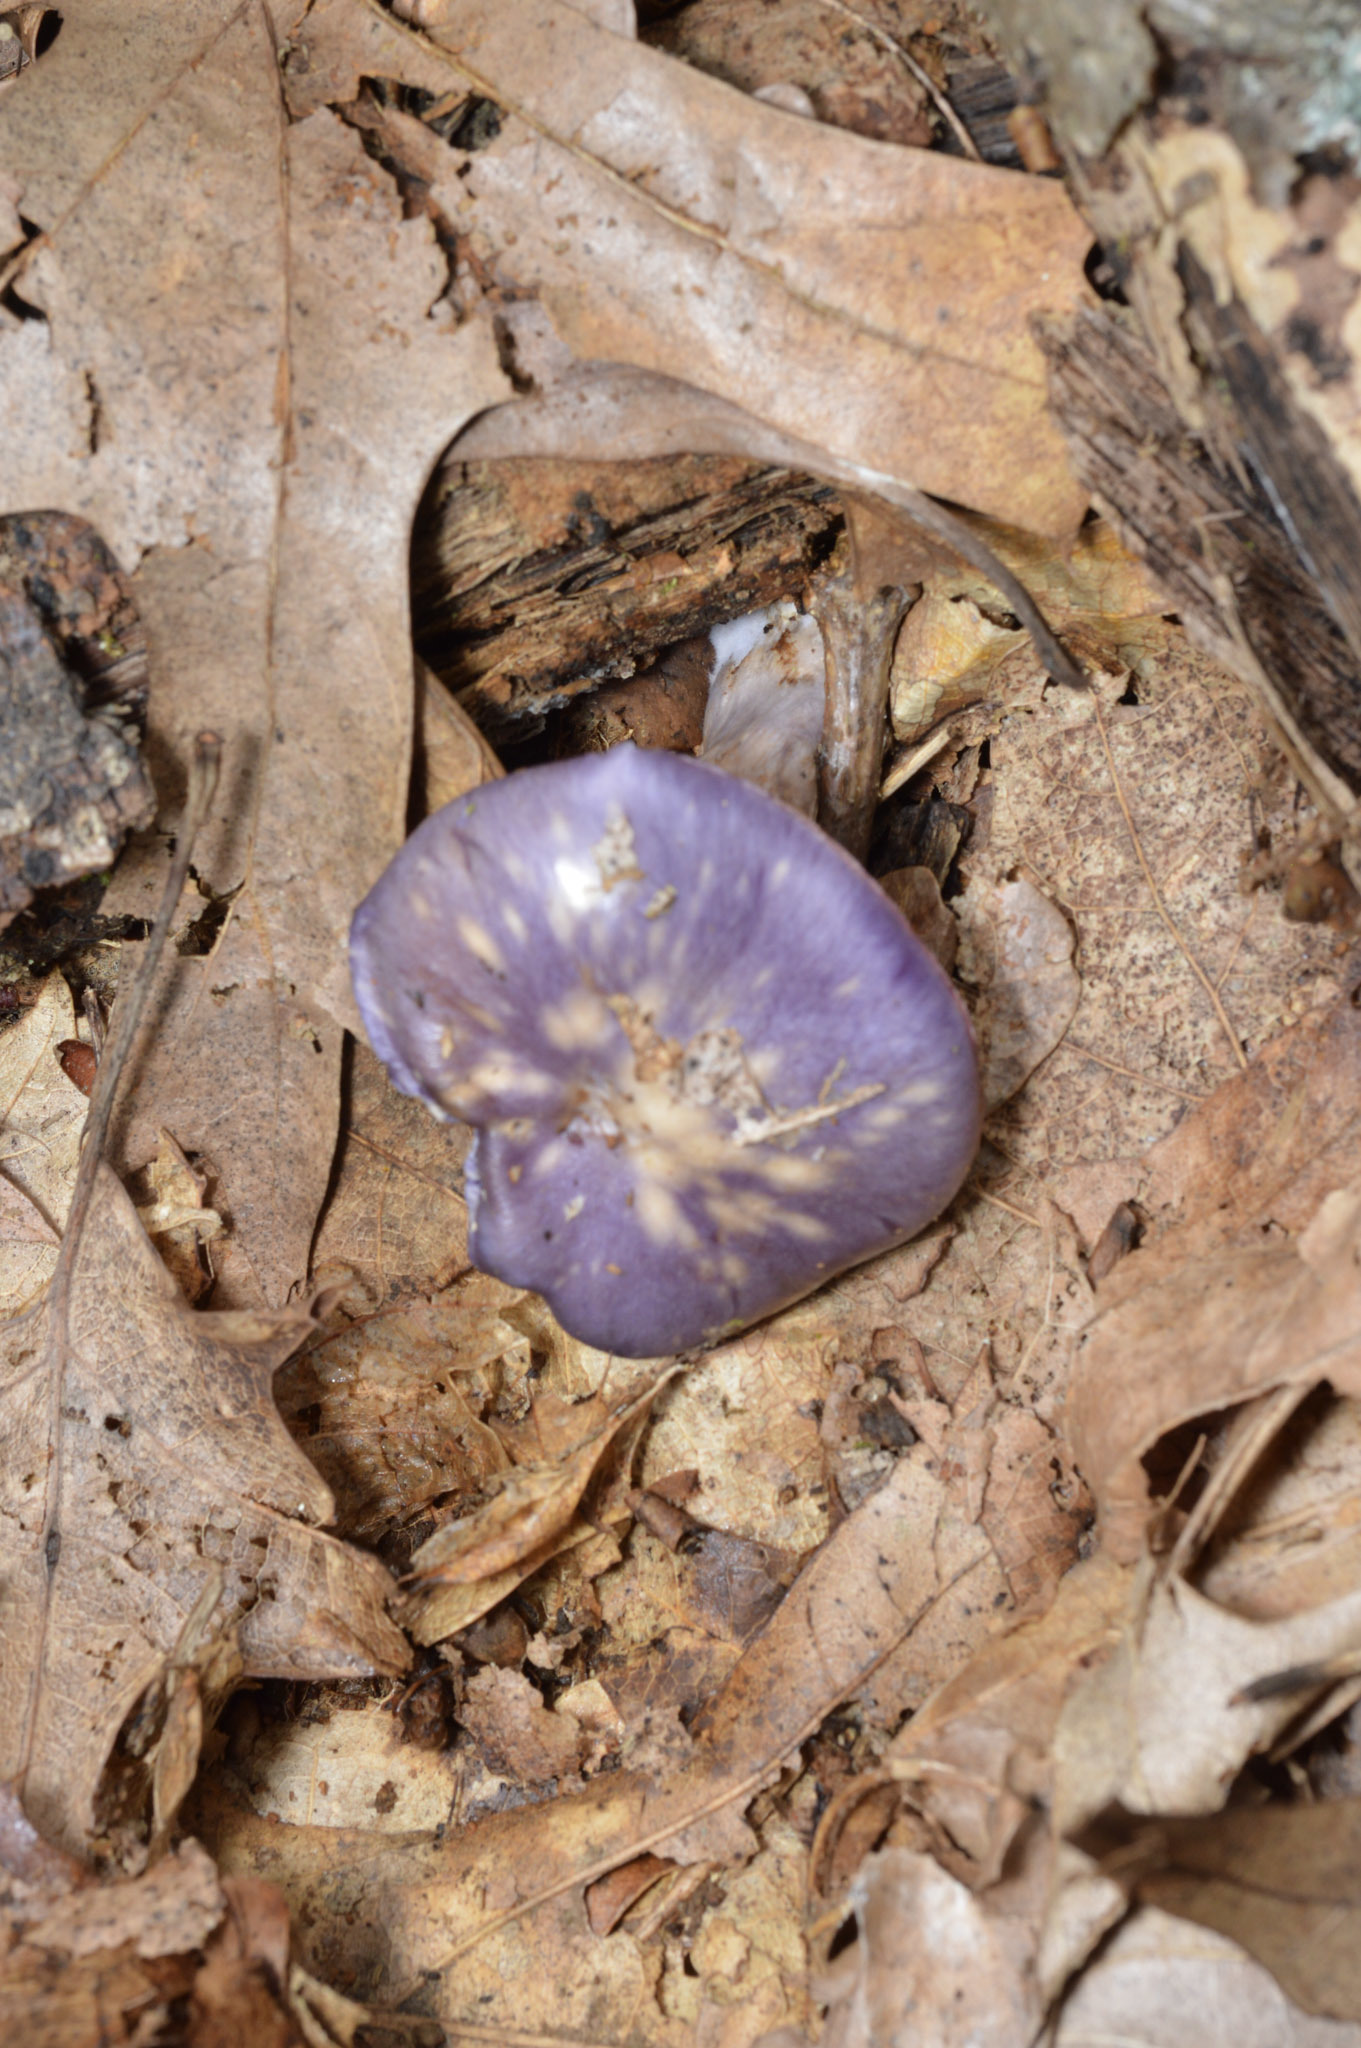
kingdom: Fungi
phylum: Basidiomycota
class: Agaricomycetes
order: Agaricales
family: Cortinariaceae
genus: Cortinarius
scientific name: Cortinarius iodes
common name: Viscid violet cort
